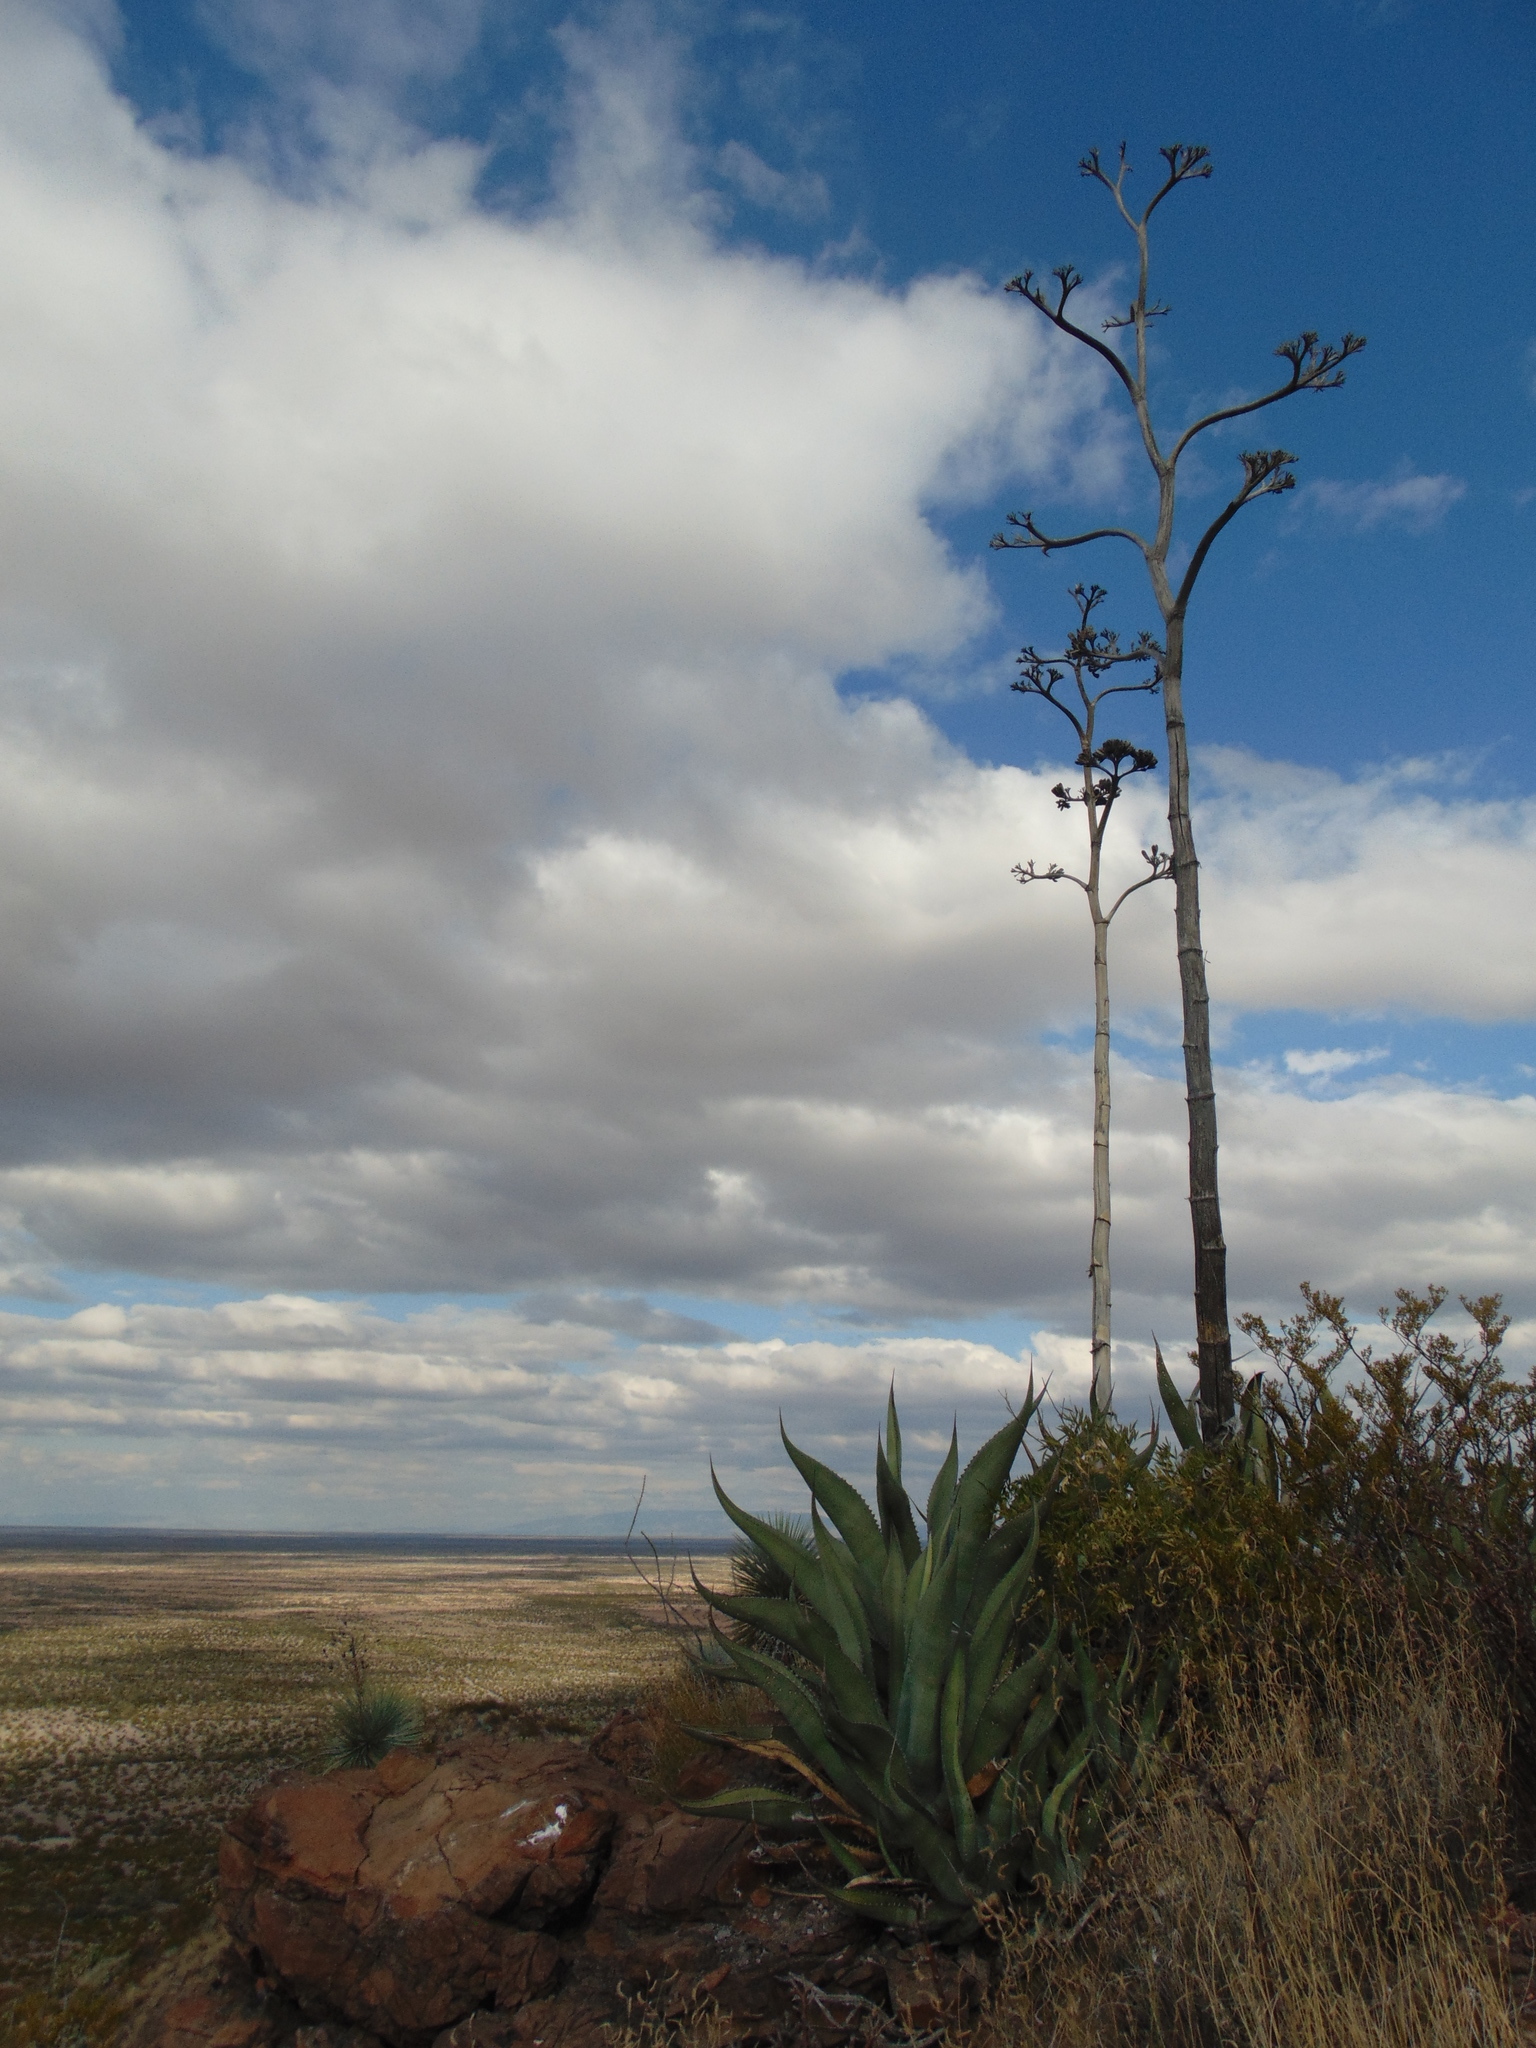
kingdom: Plantae
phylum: Tracheophyta
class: Liliopsida
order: Asparagales
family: Asparagaceae
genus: Agave
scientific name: Agave asperrima
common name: Rough agave
